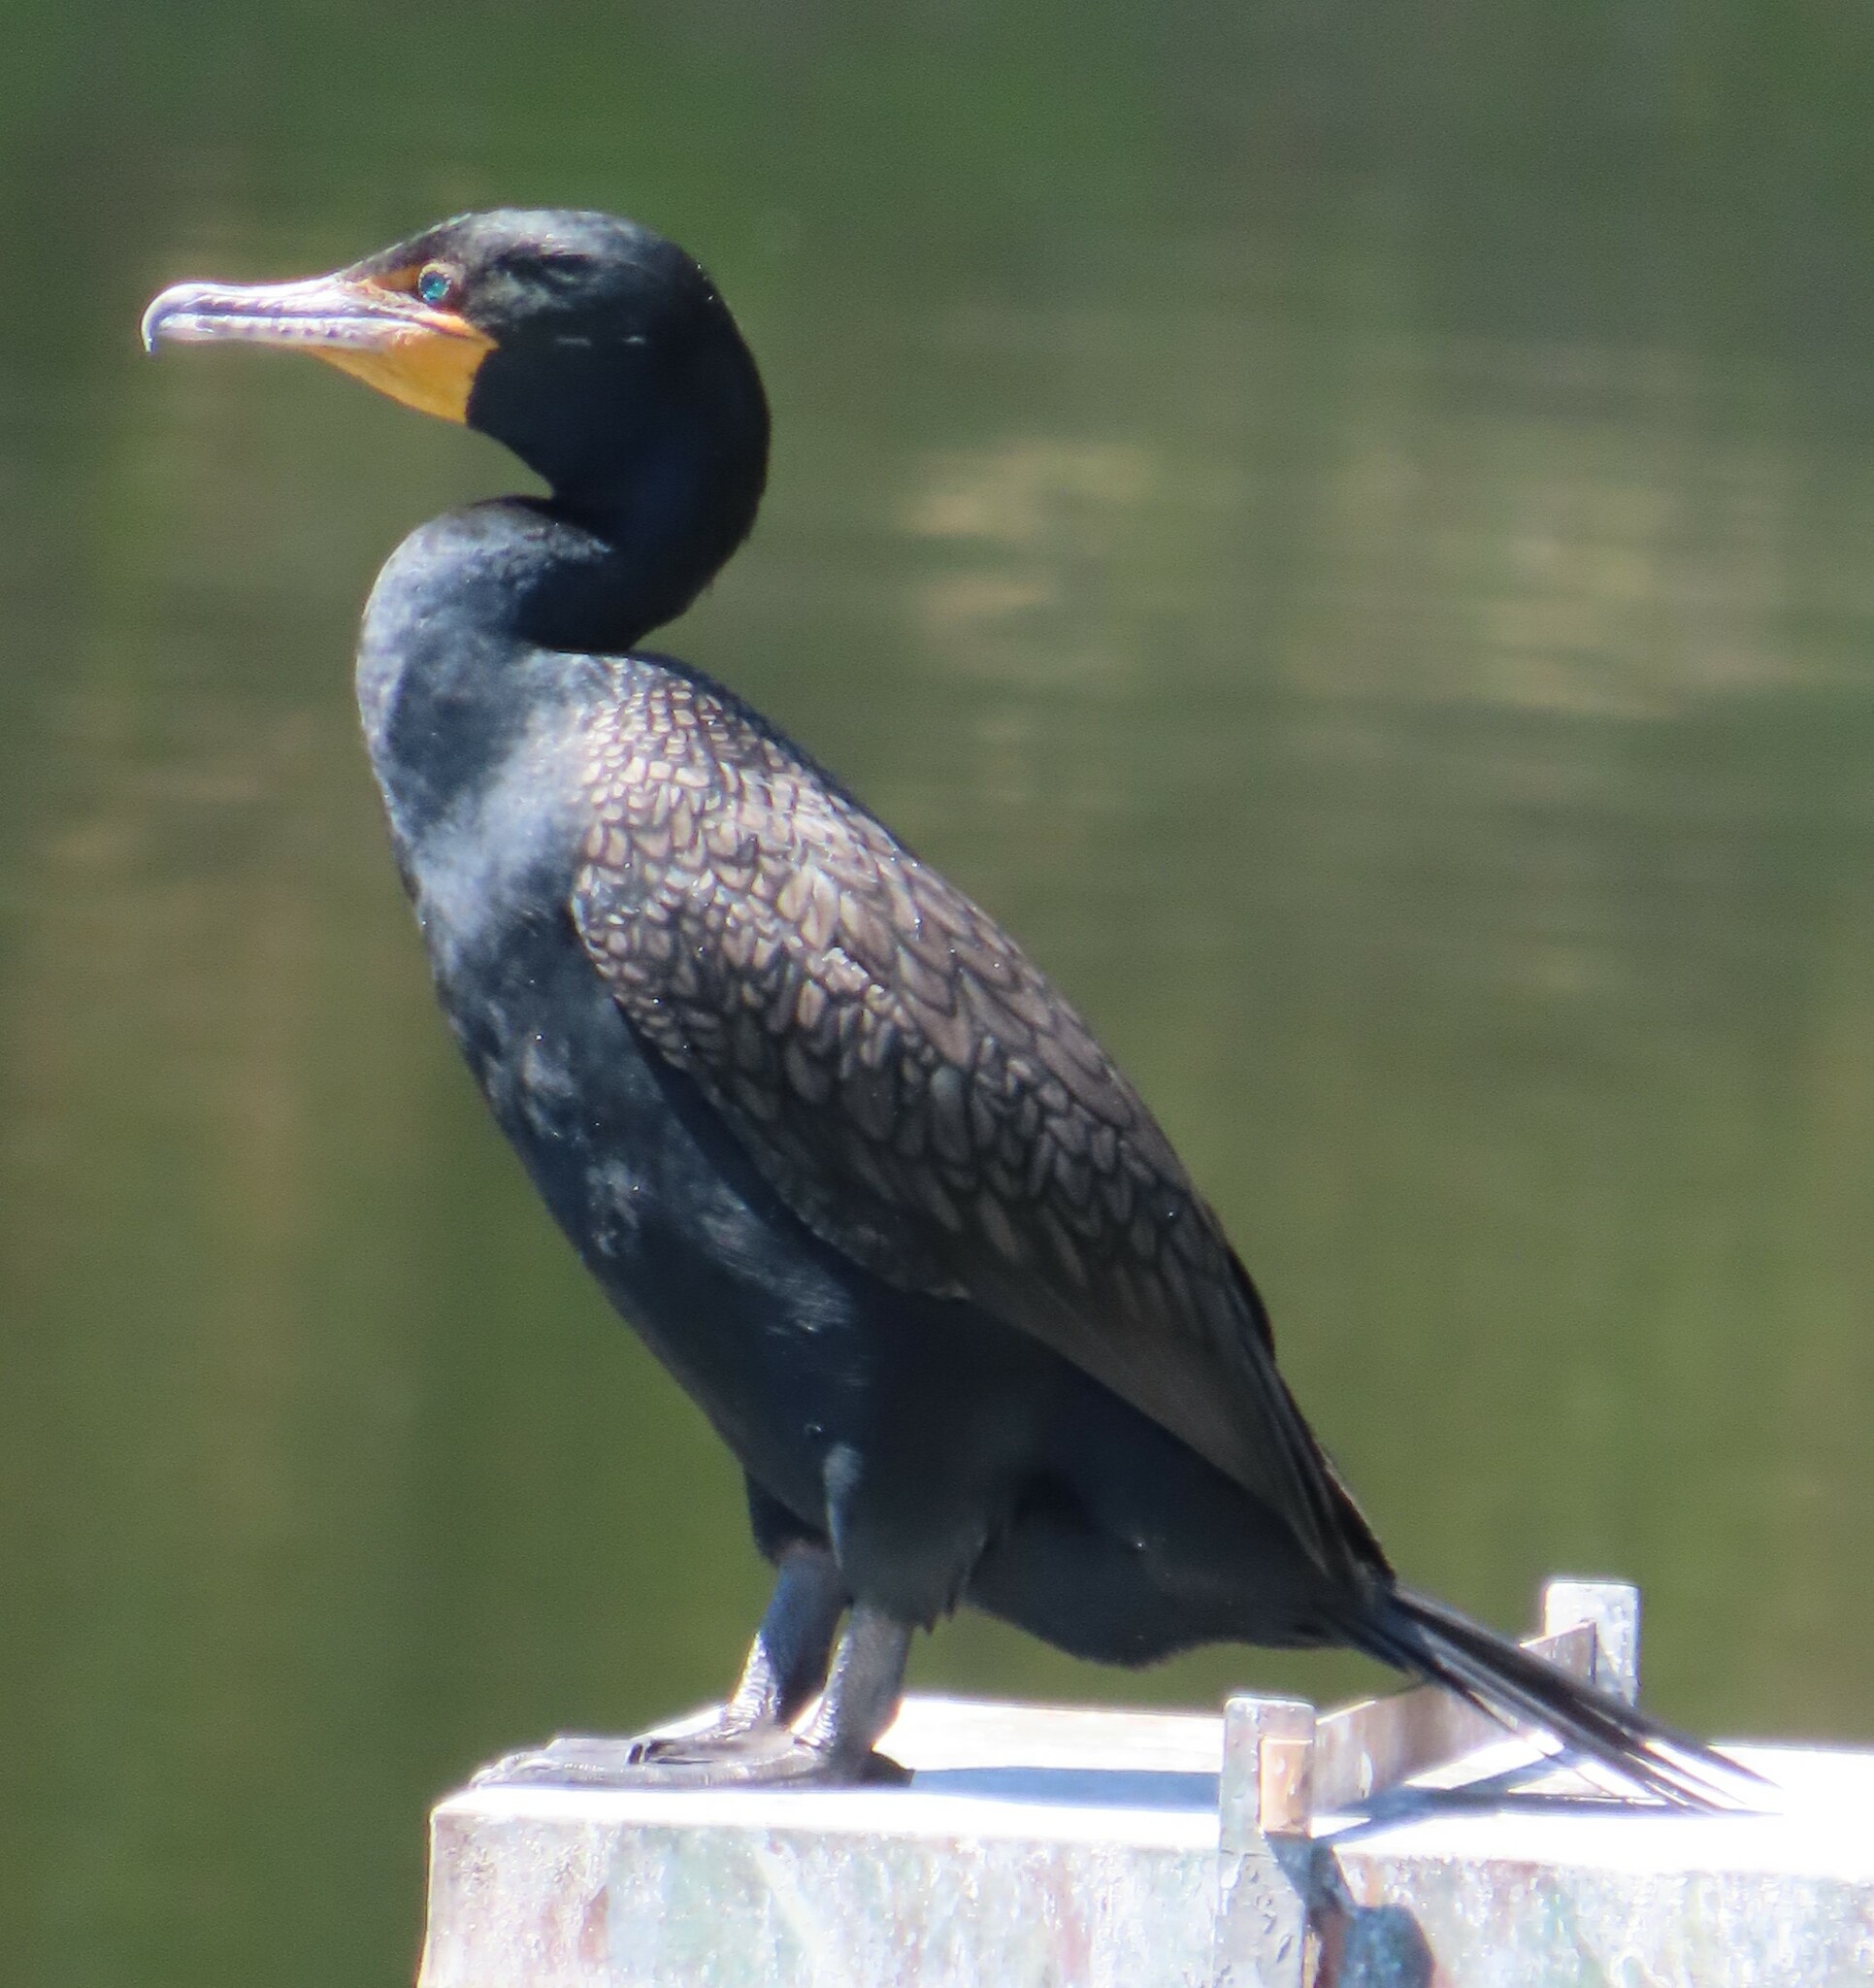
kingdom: Animalia
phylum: Chordata
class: Aves
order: Suliformes
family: Phalacrocoracidae
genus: Phalacrocorax
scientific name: Phalacrocorax auritus
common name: Double-crested cormorant
